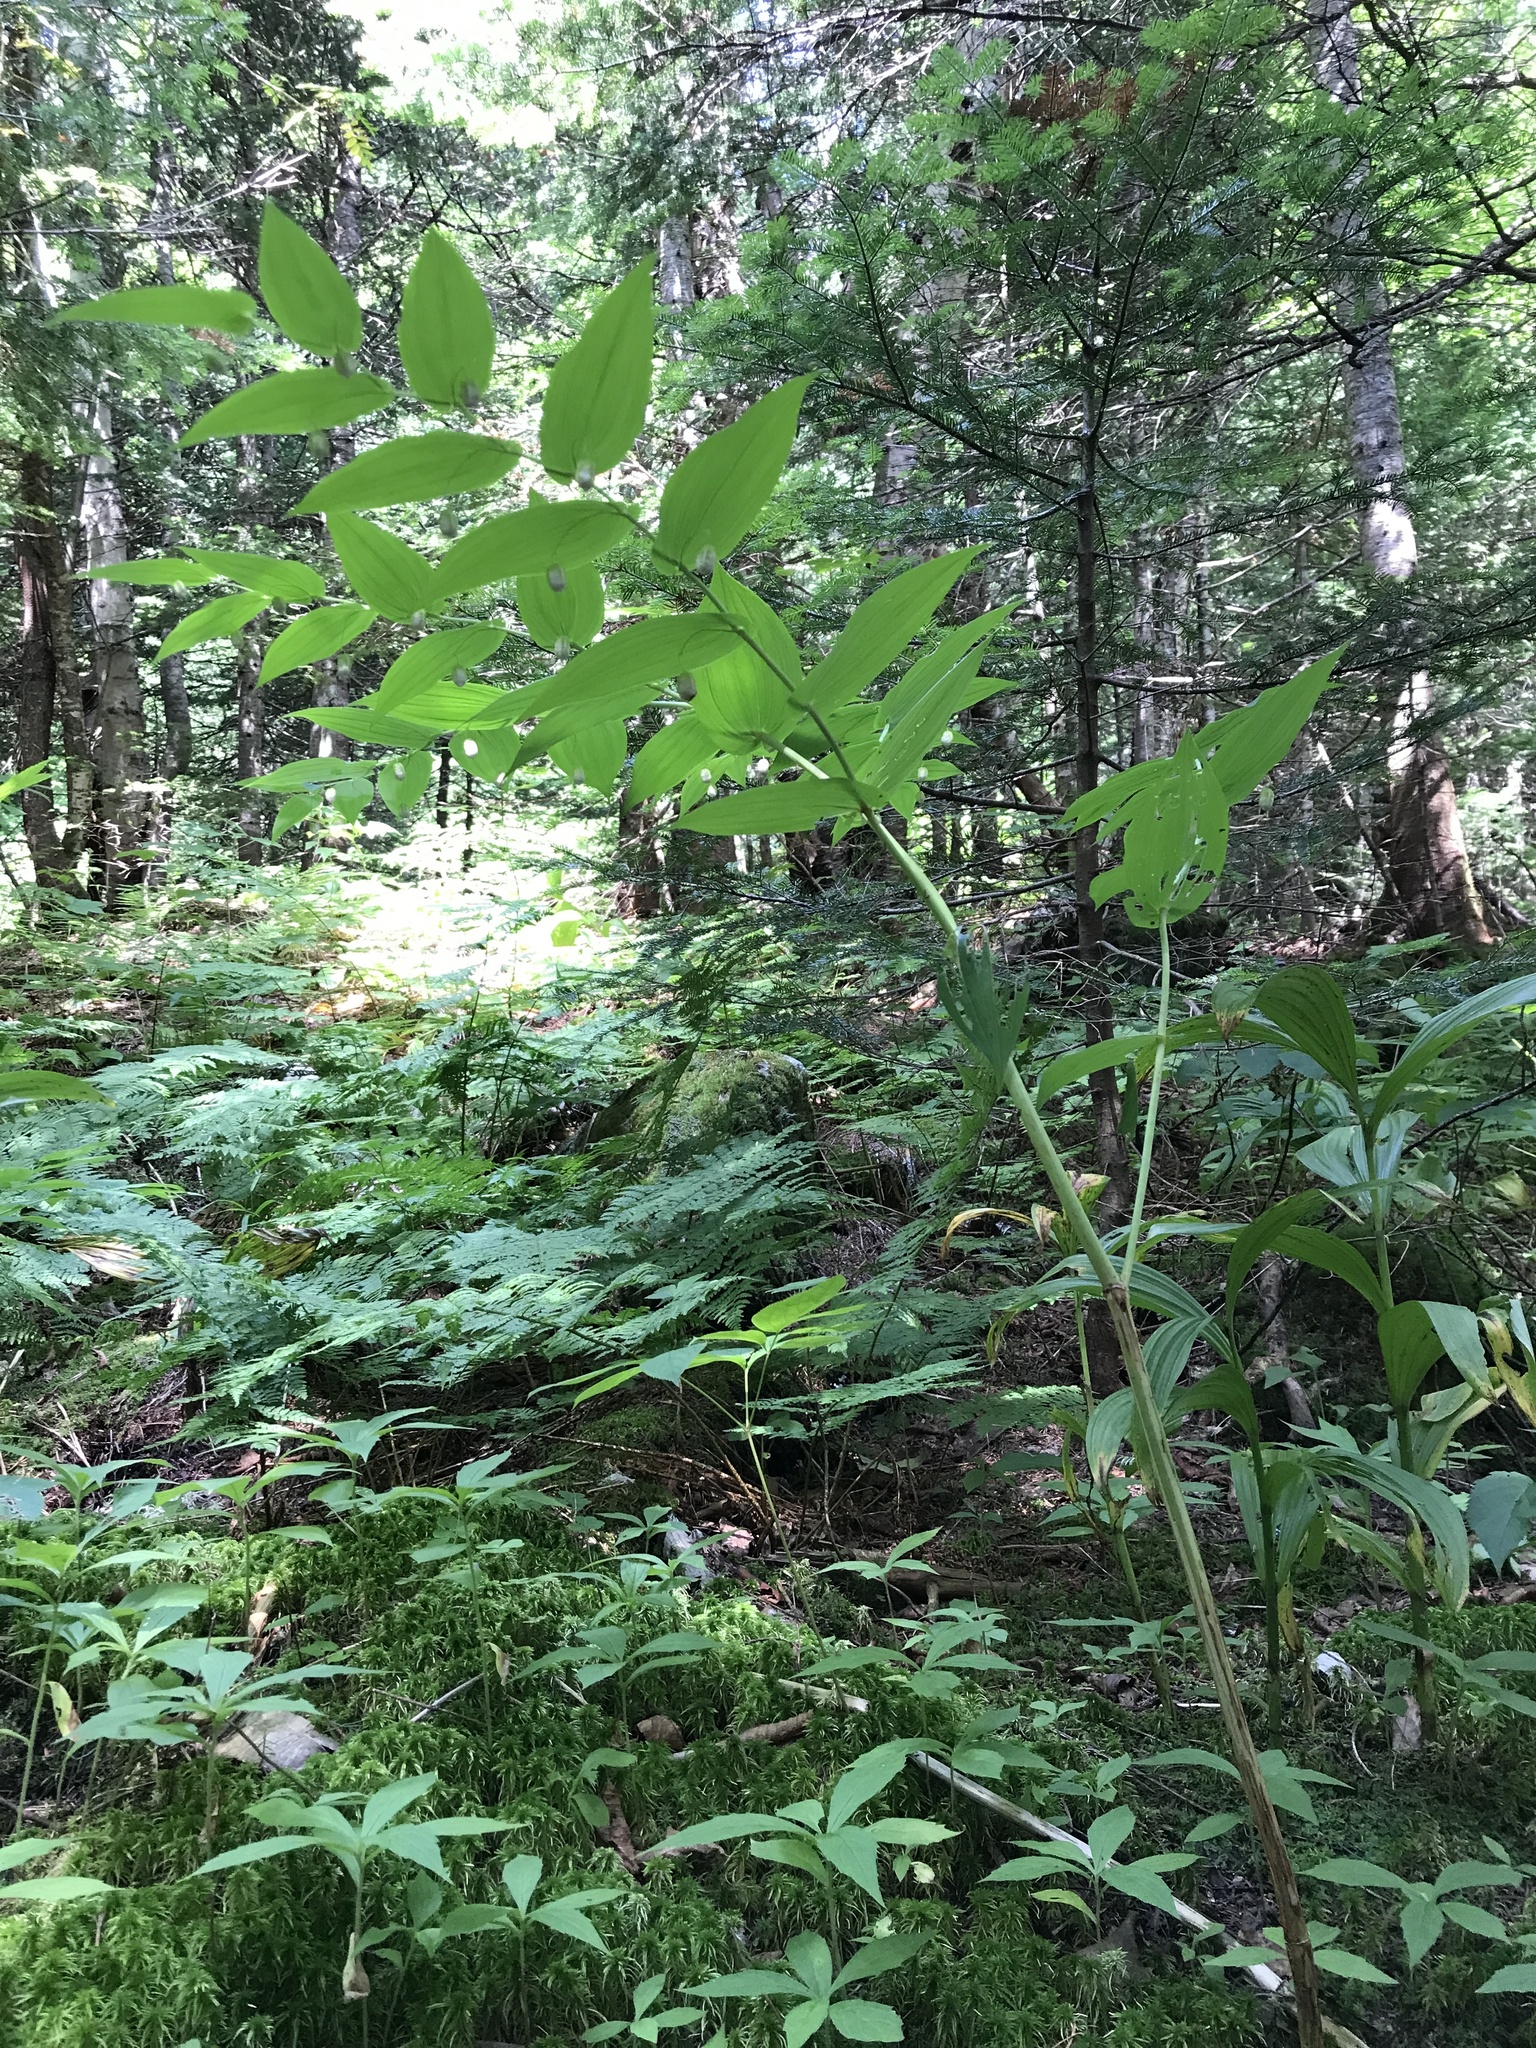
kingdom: Plantae
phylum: Tracheophyta
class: Liliopsida
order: Liliales
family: Liliaceae
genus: Streptopus
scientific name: Streptopus amplexifolius
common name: Clasp twisted stalk
